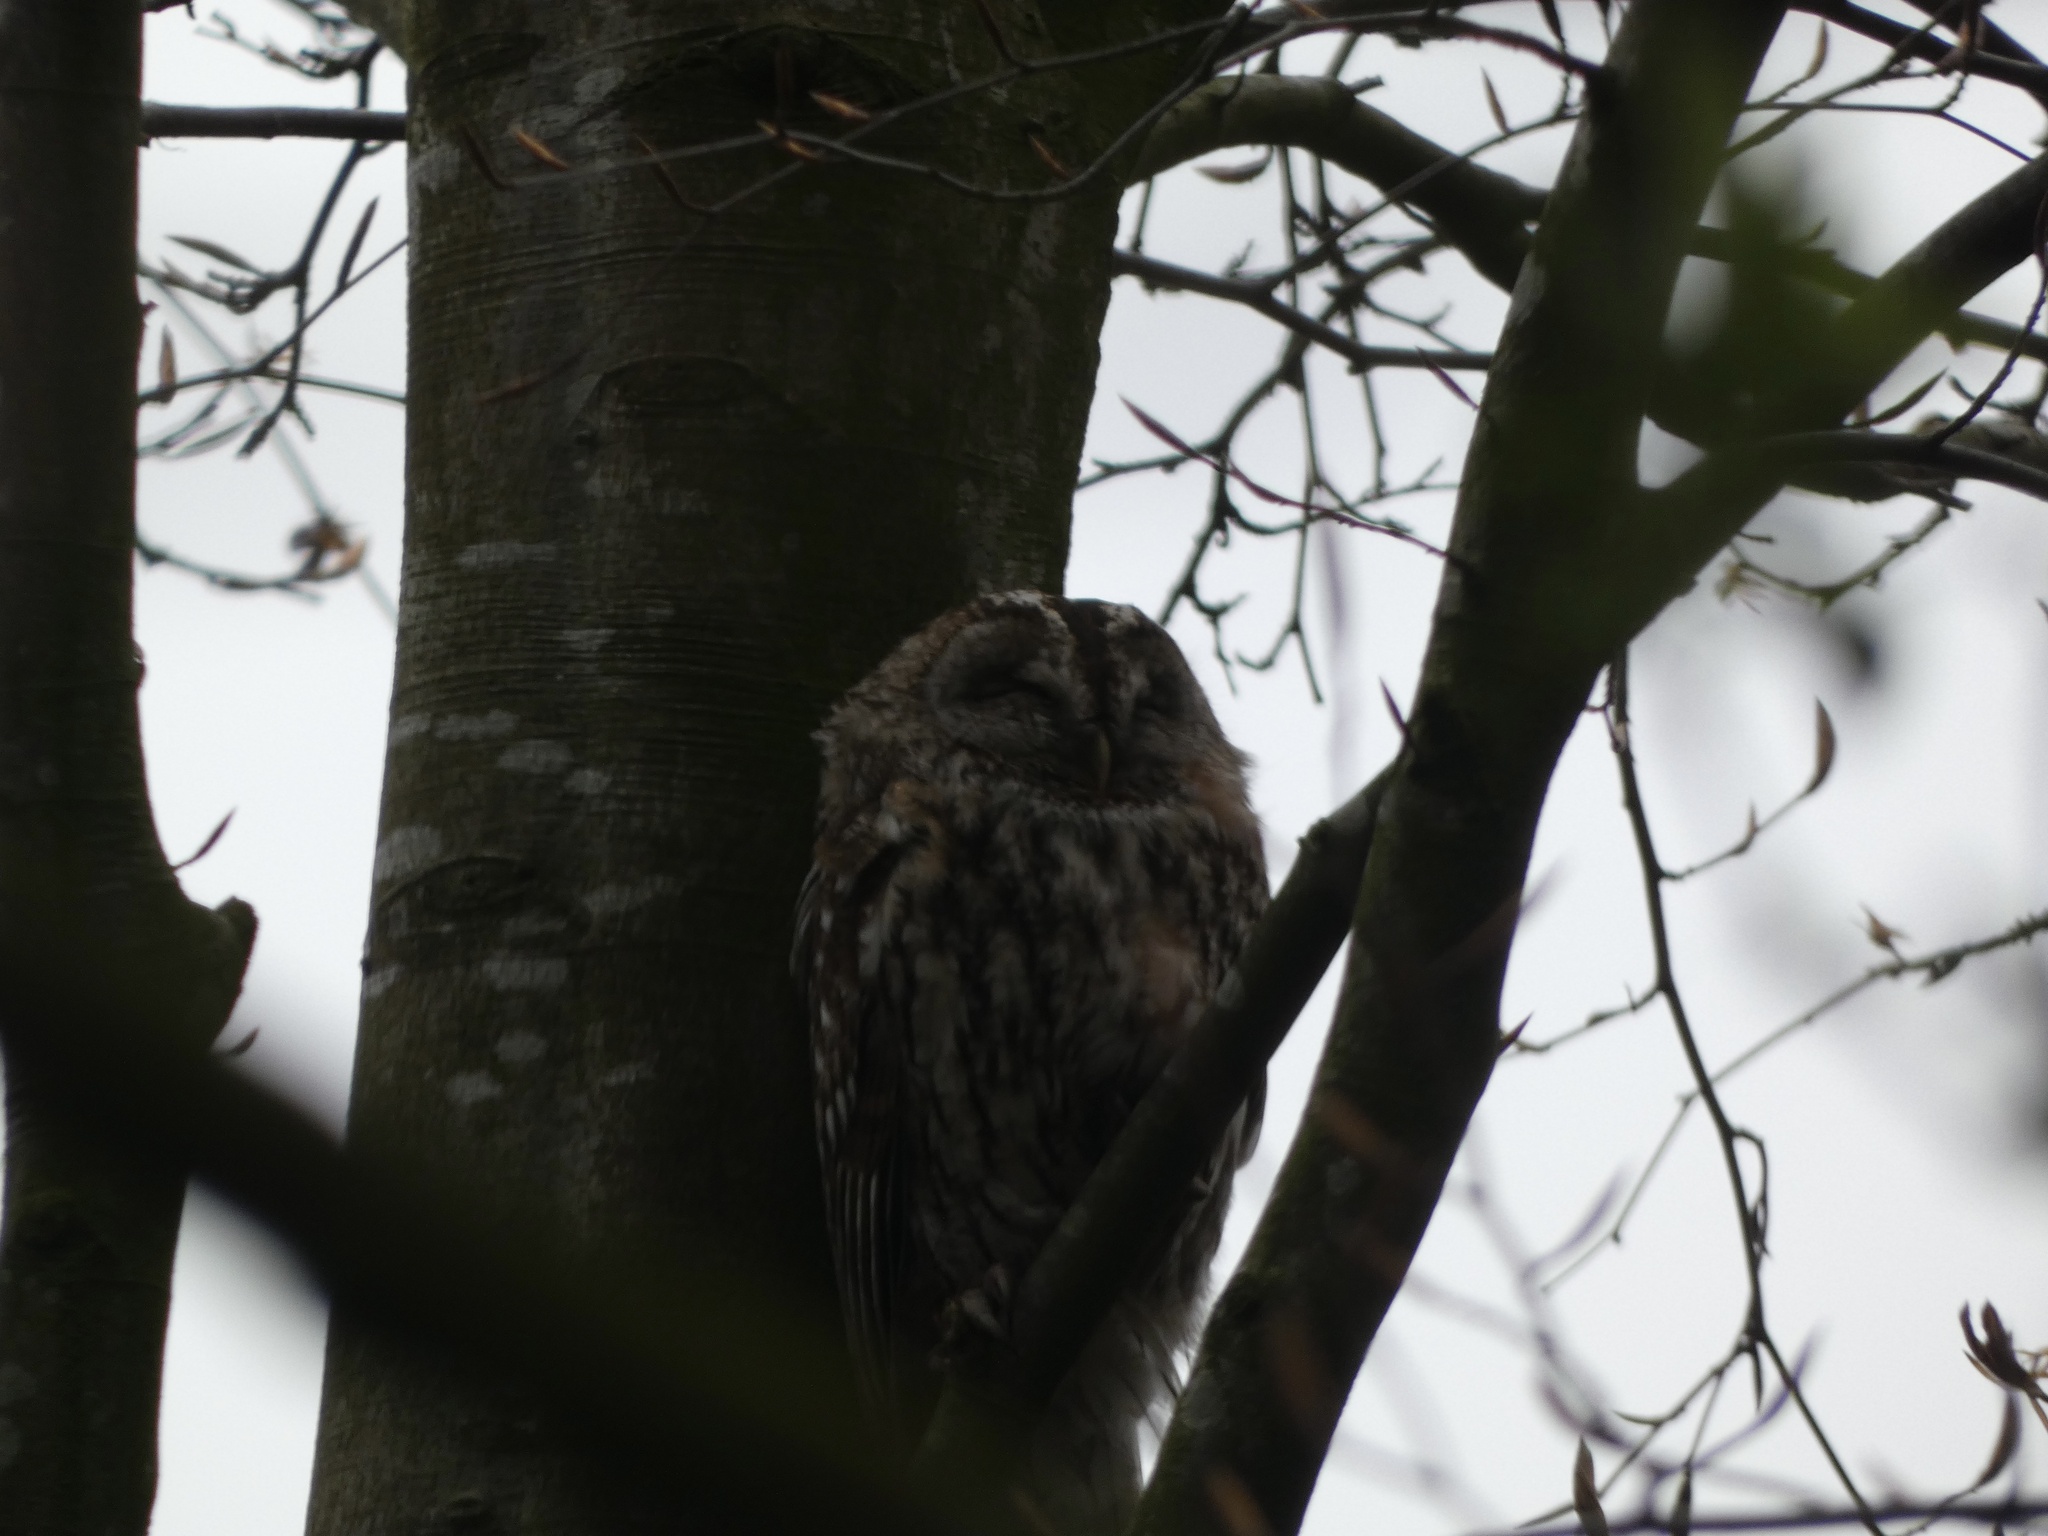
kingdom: Animalia
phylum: Chordata
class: Aves
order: Strigiformes
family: Strigidae
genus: Strix
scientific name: Strix aluco
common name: Tawny owl
